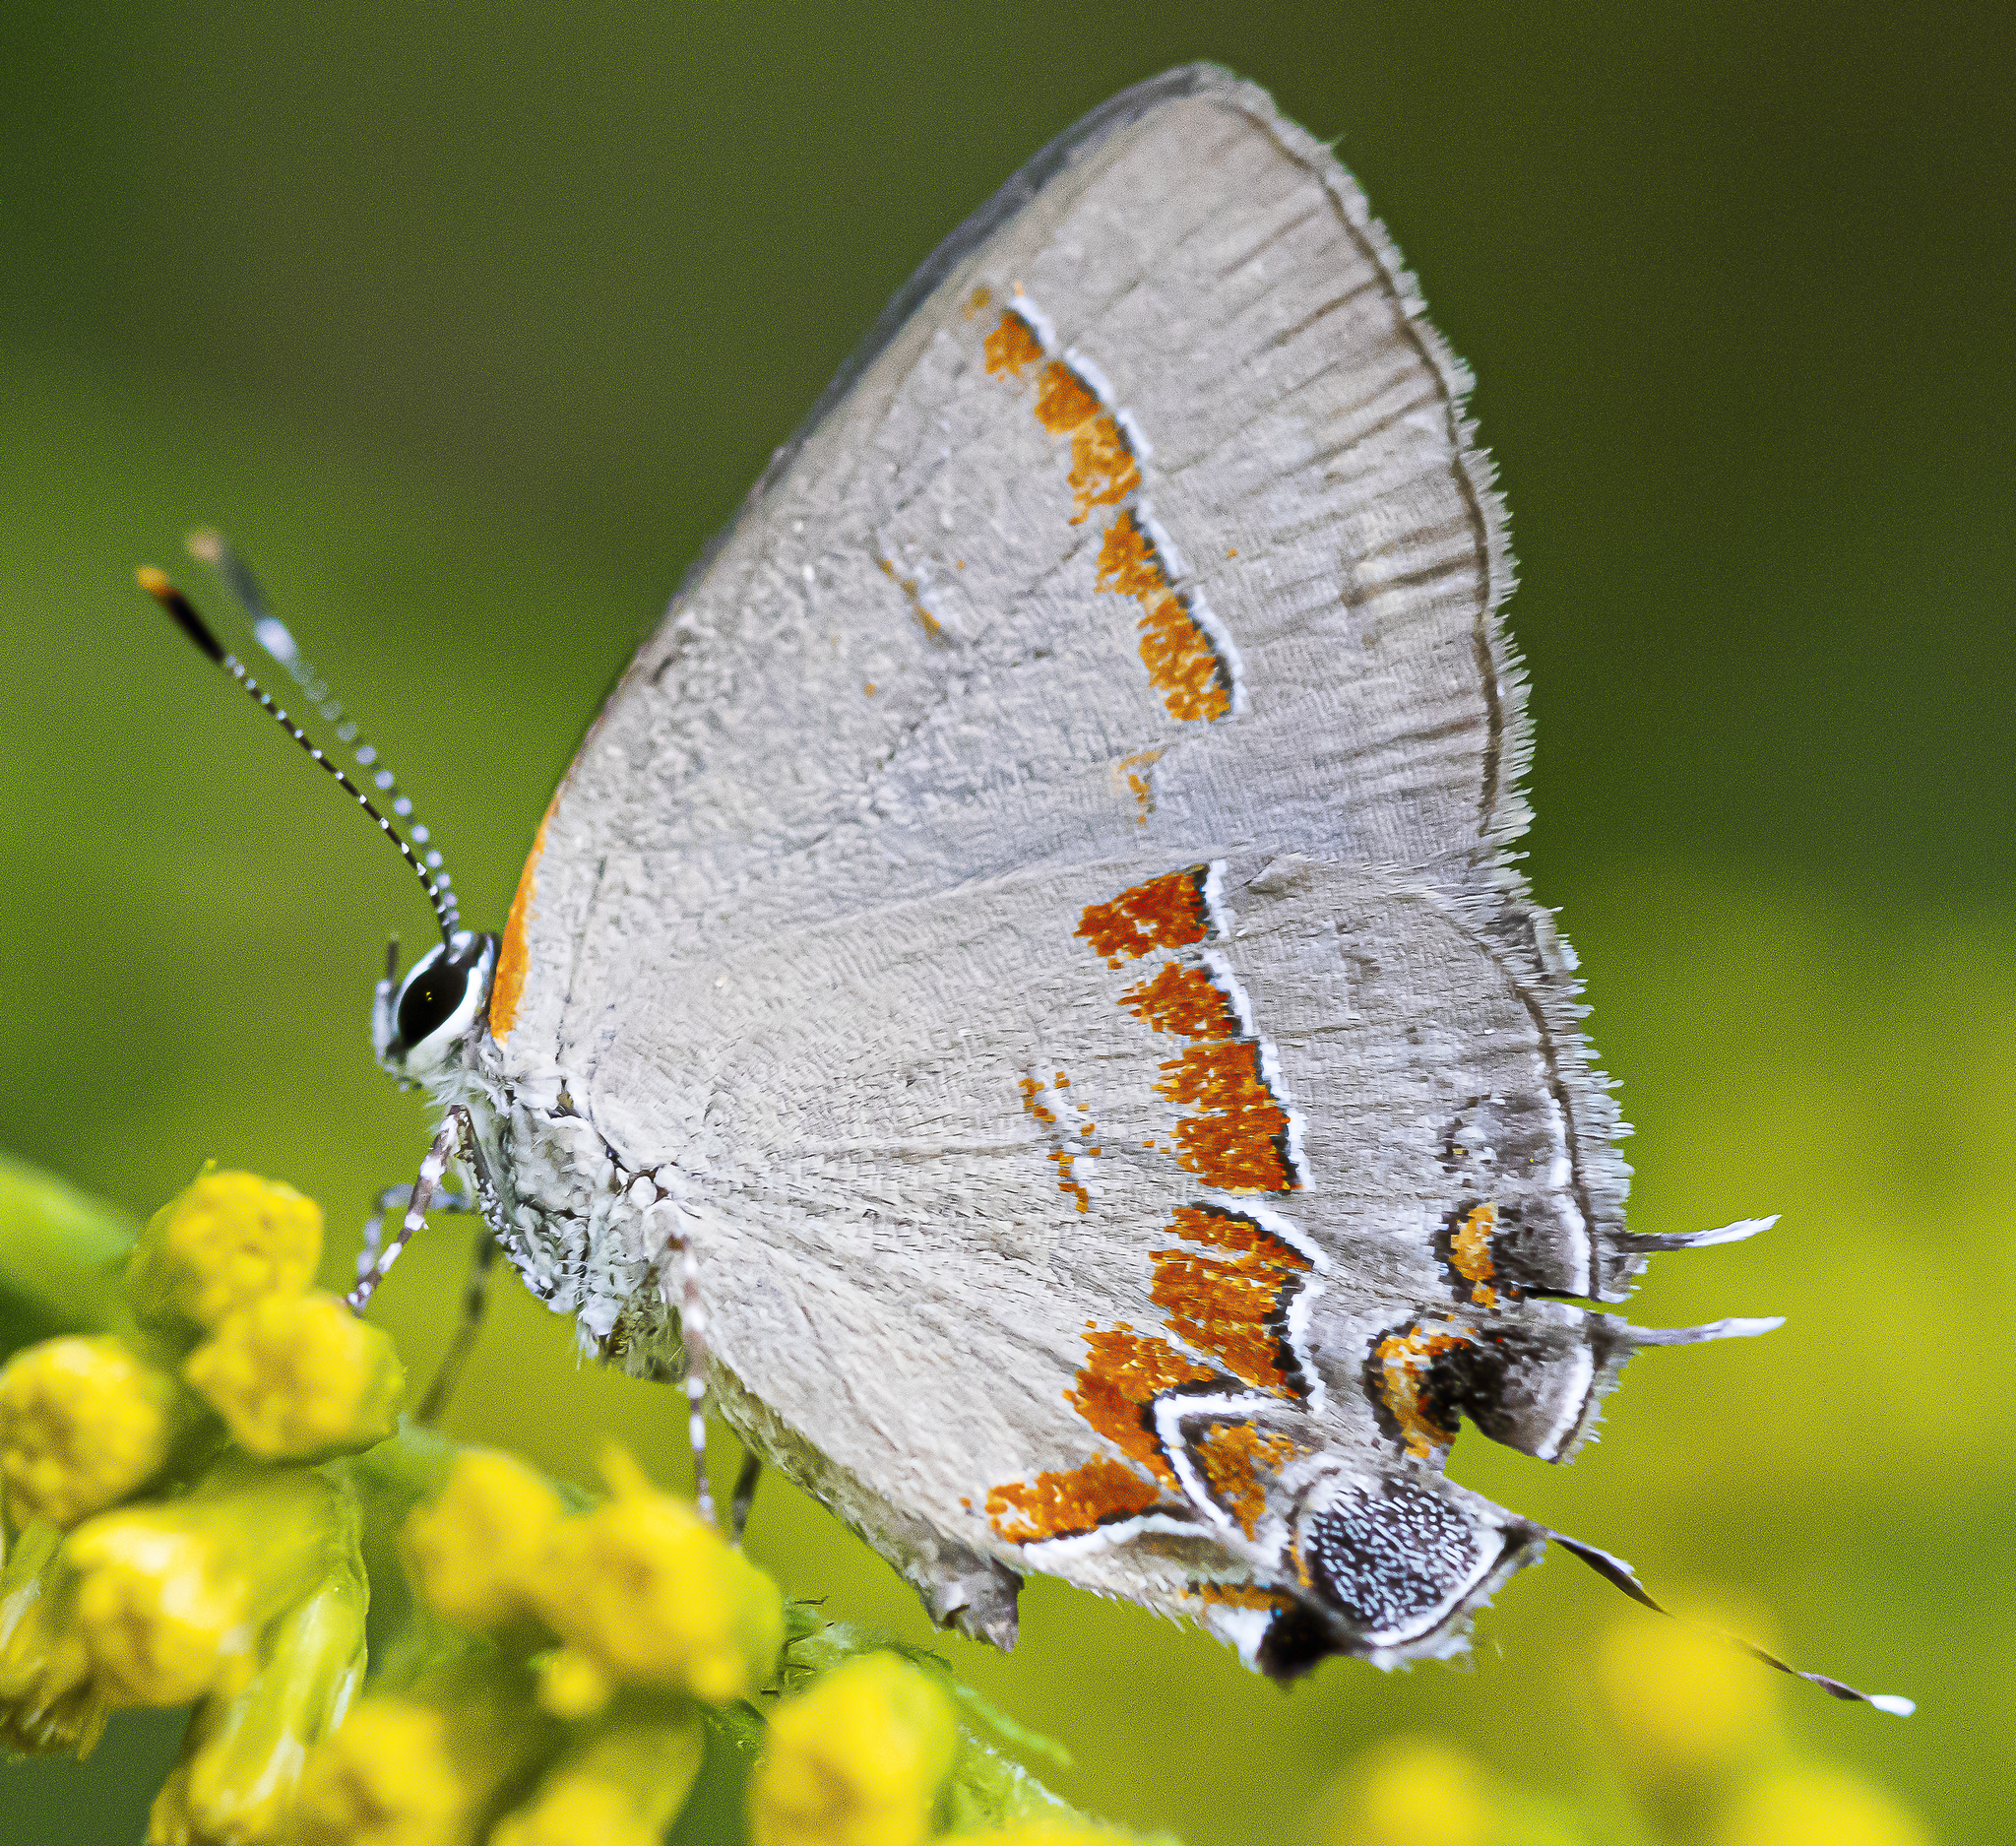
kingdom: Animalia
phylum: Arthropoda
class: Insecta
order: Lepidoptera
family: Lycaenidae
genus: Calycopis
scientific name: Calycopis cecrops
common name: Red-banded hairstreak
